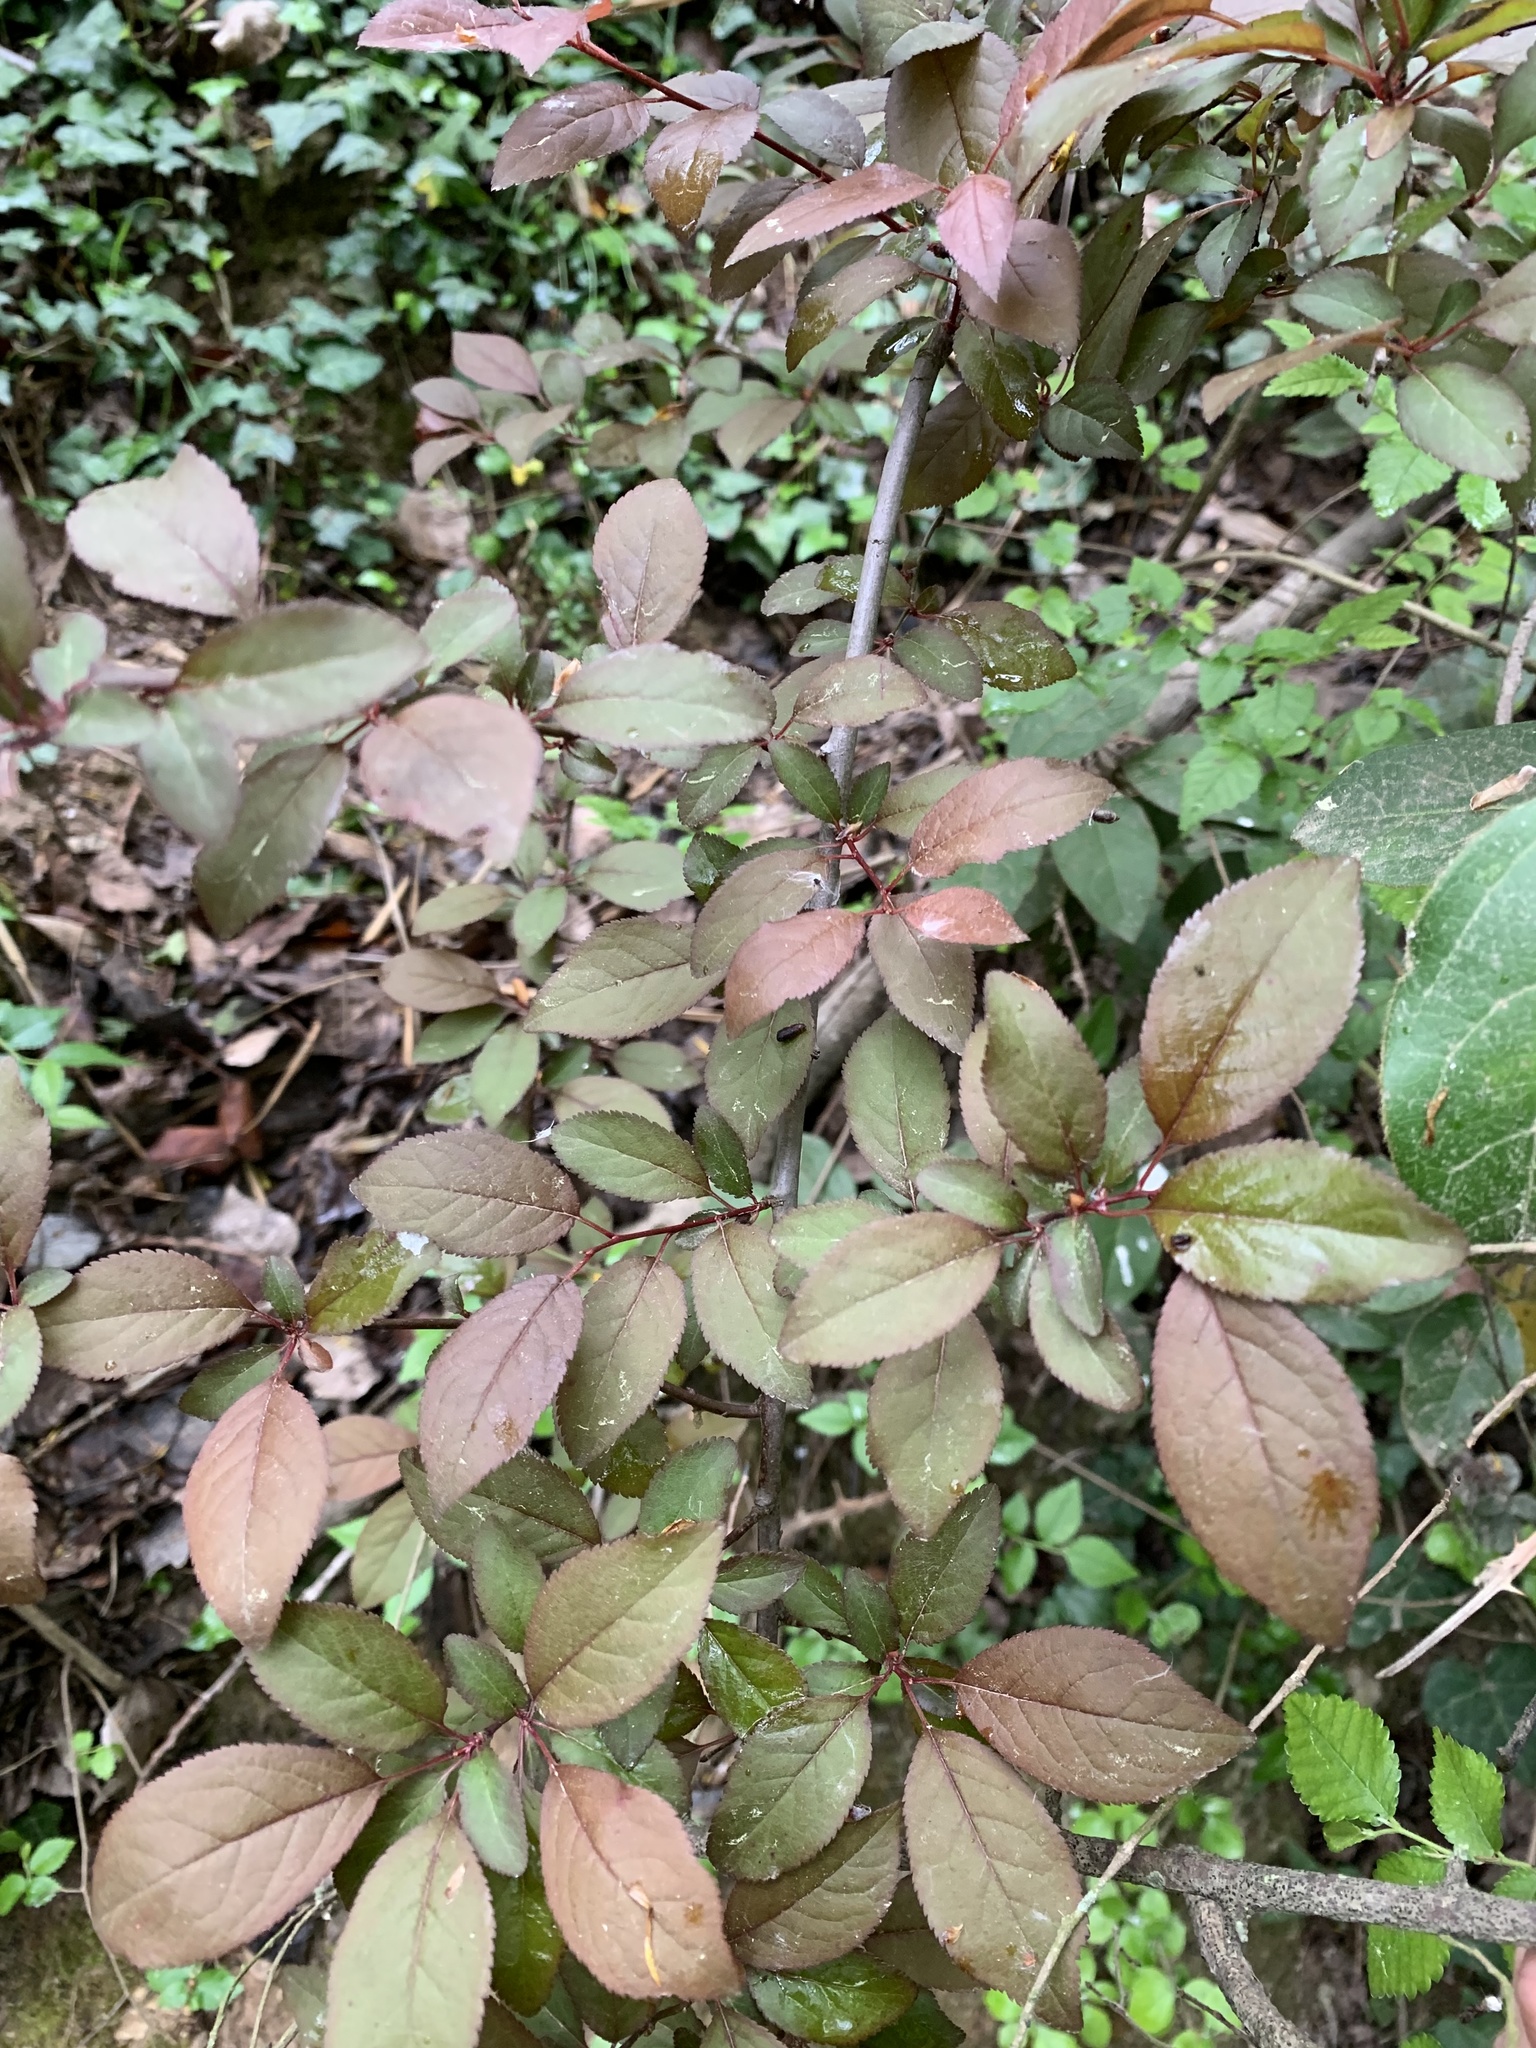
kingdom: Plantae
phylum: Tracheophyta
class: Magnoliopsida
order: Rosales
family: Rosaceae
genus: Prunus
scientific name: Prunus cerasifera
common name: Cherry plum
